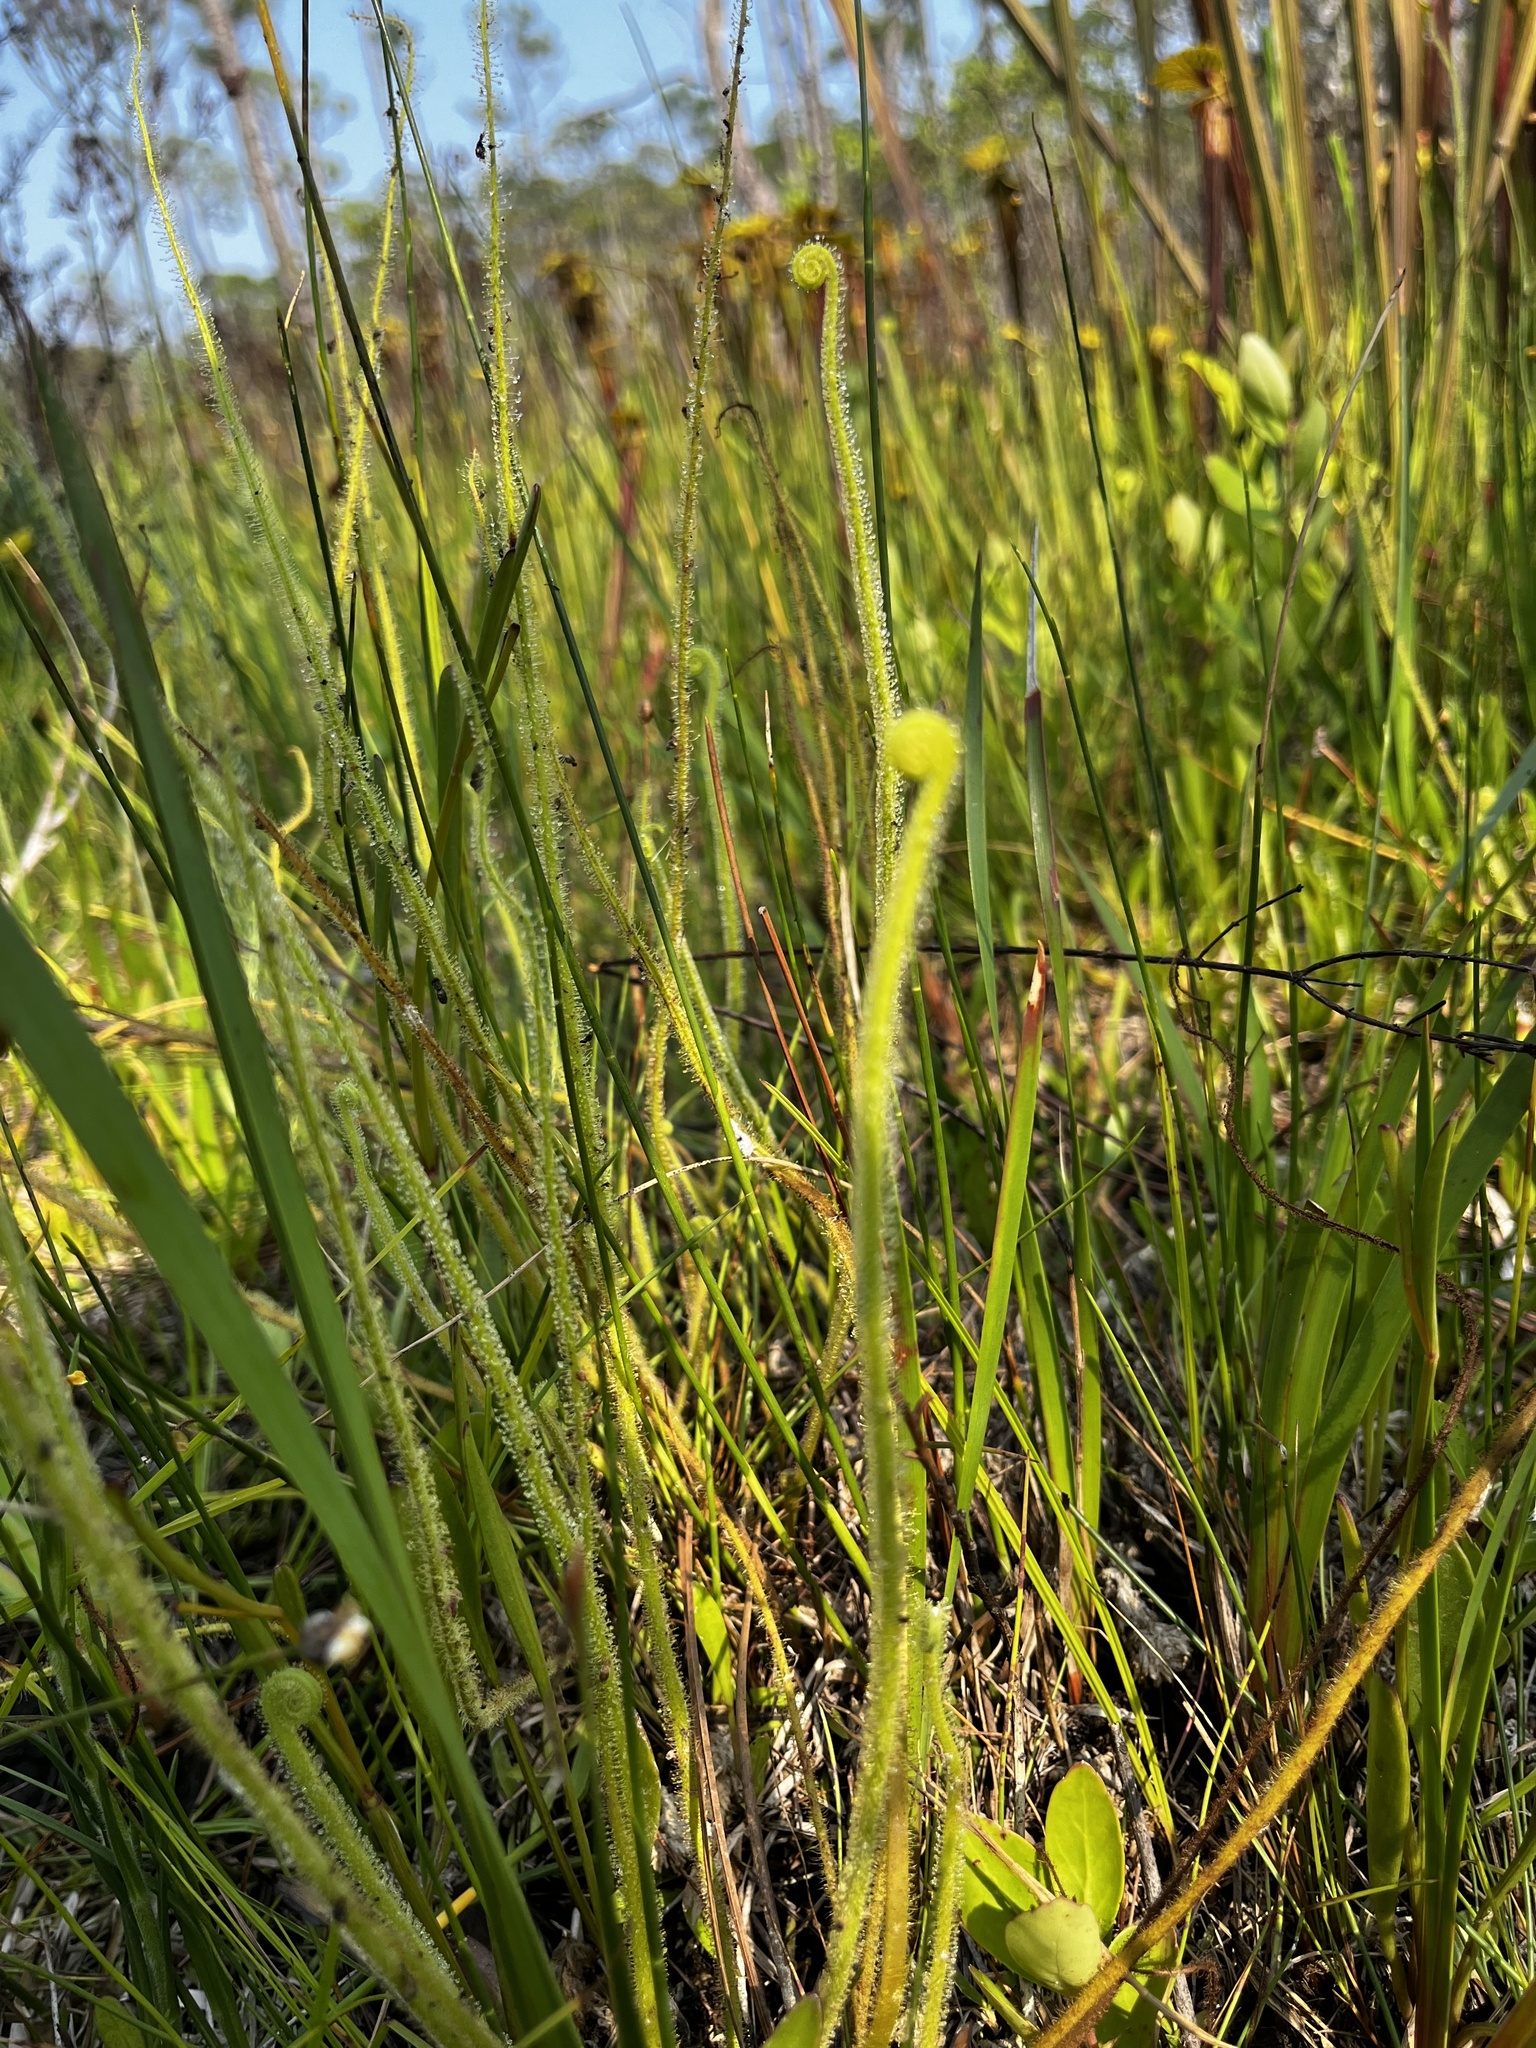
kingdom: Plantae
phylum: Tracheophyta
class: Magnoliopsida
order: Caryophyllales
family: Droseraceae
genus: Drosera
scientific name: Drosera filiformis
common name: Dew-thread
